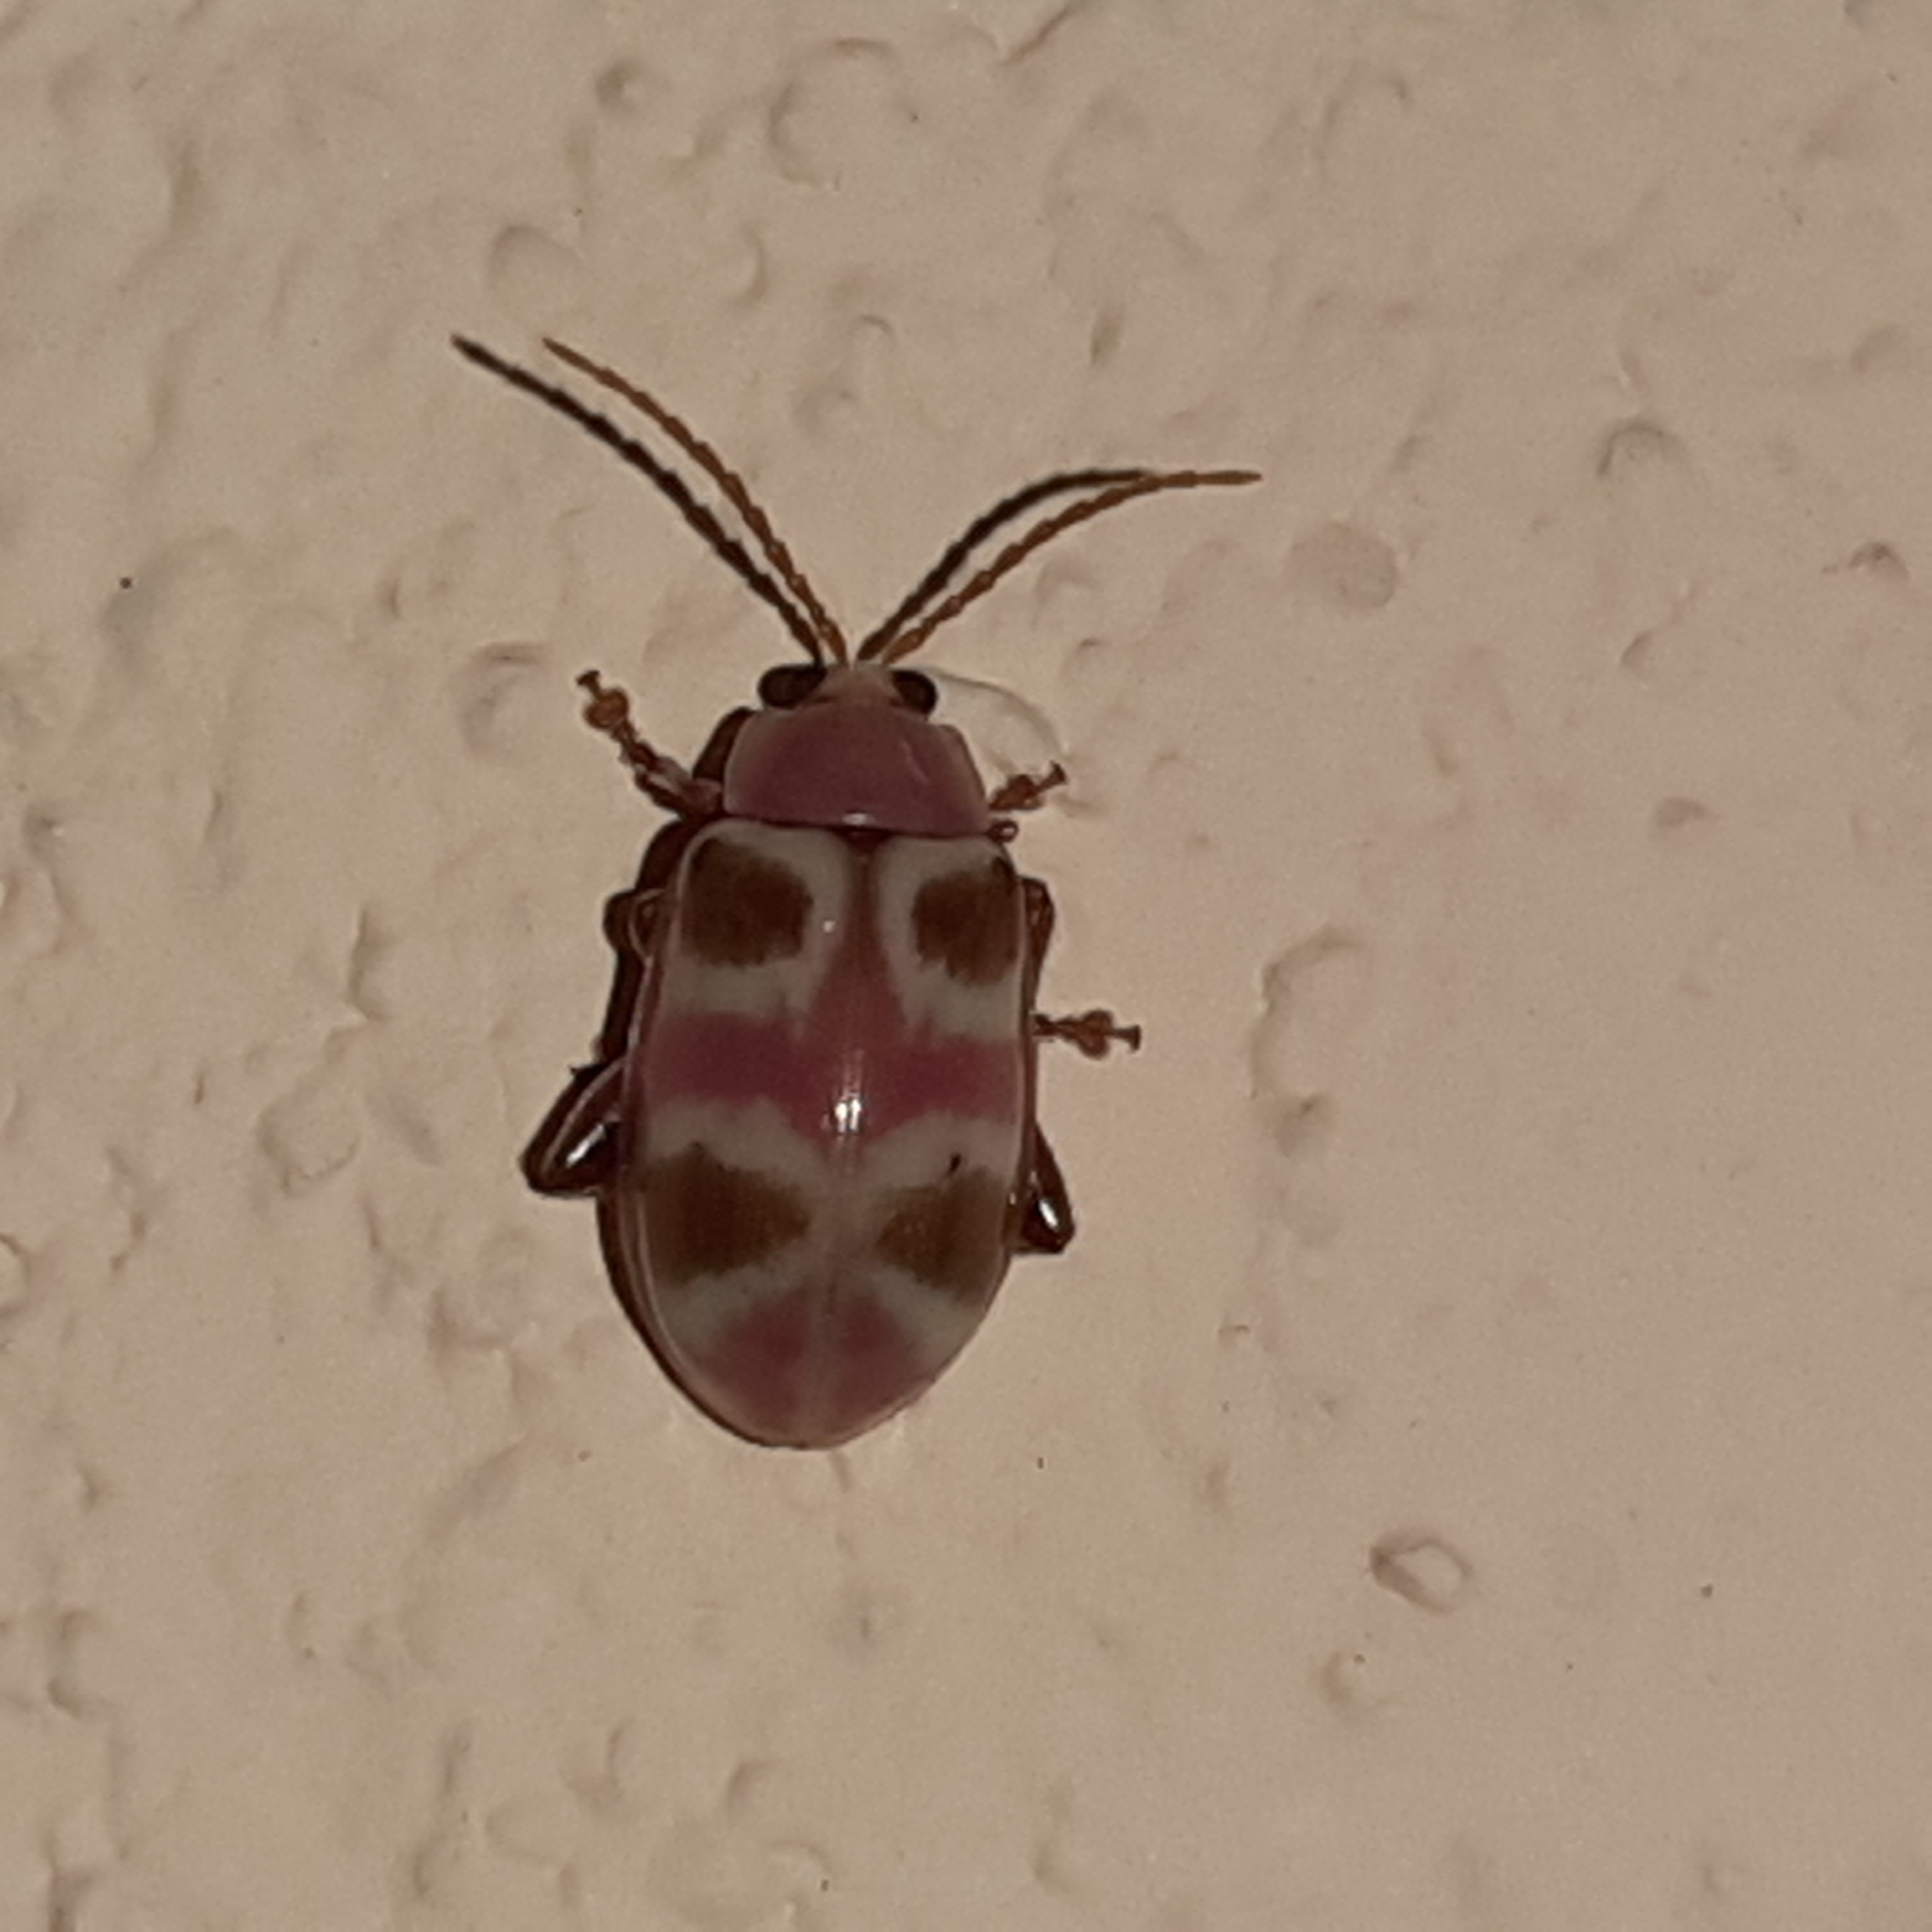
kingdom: Animalia
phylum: Arthropoda
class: Insecta
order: Coleoptera
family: Chrysomelidae
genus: Omophoita
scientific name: Omophoita
